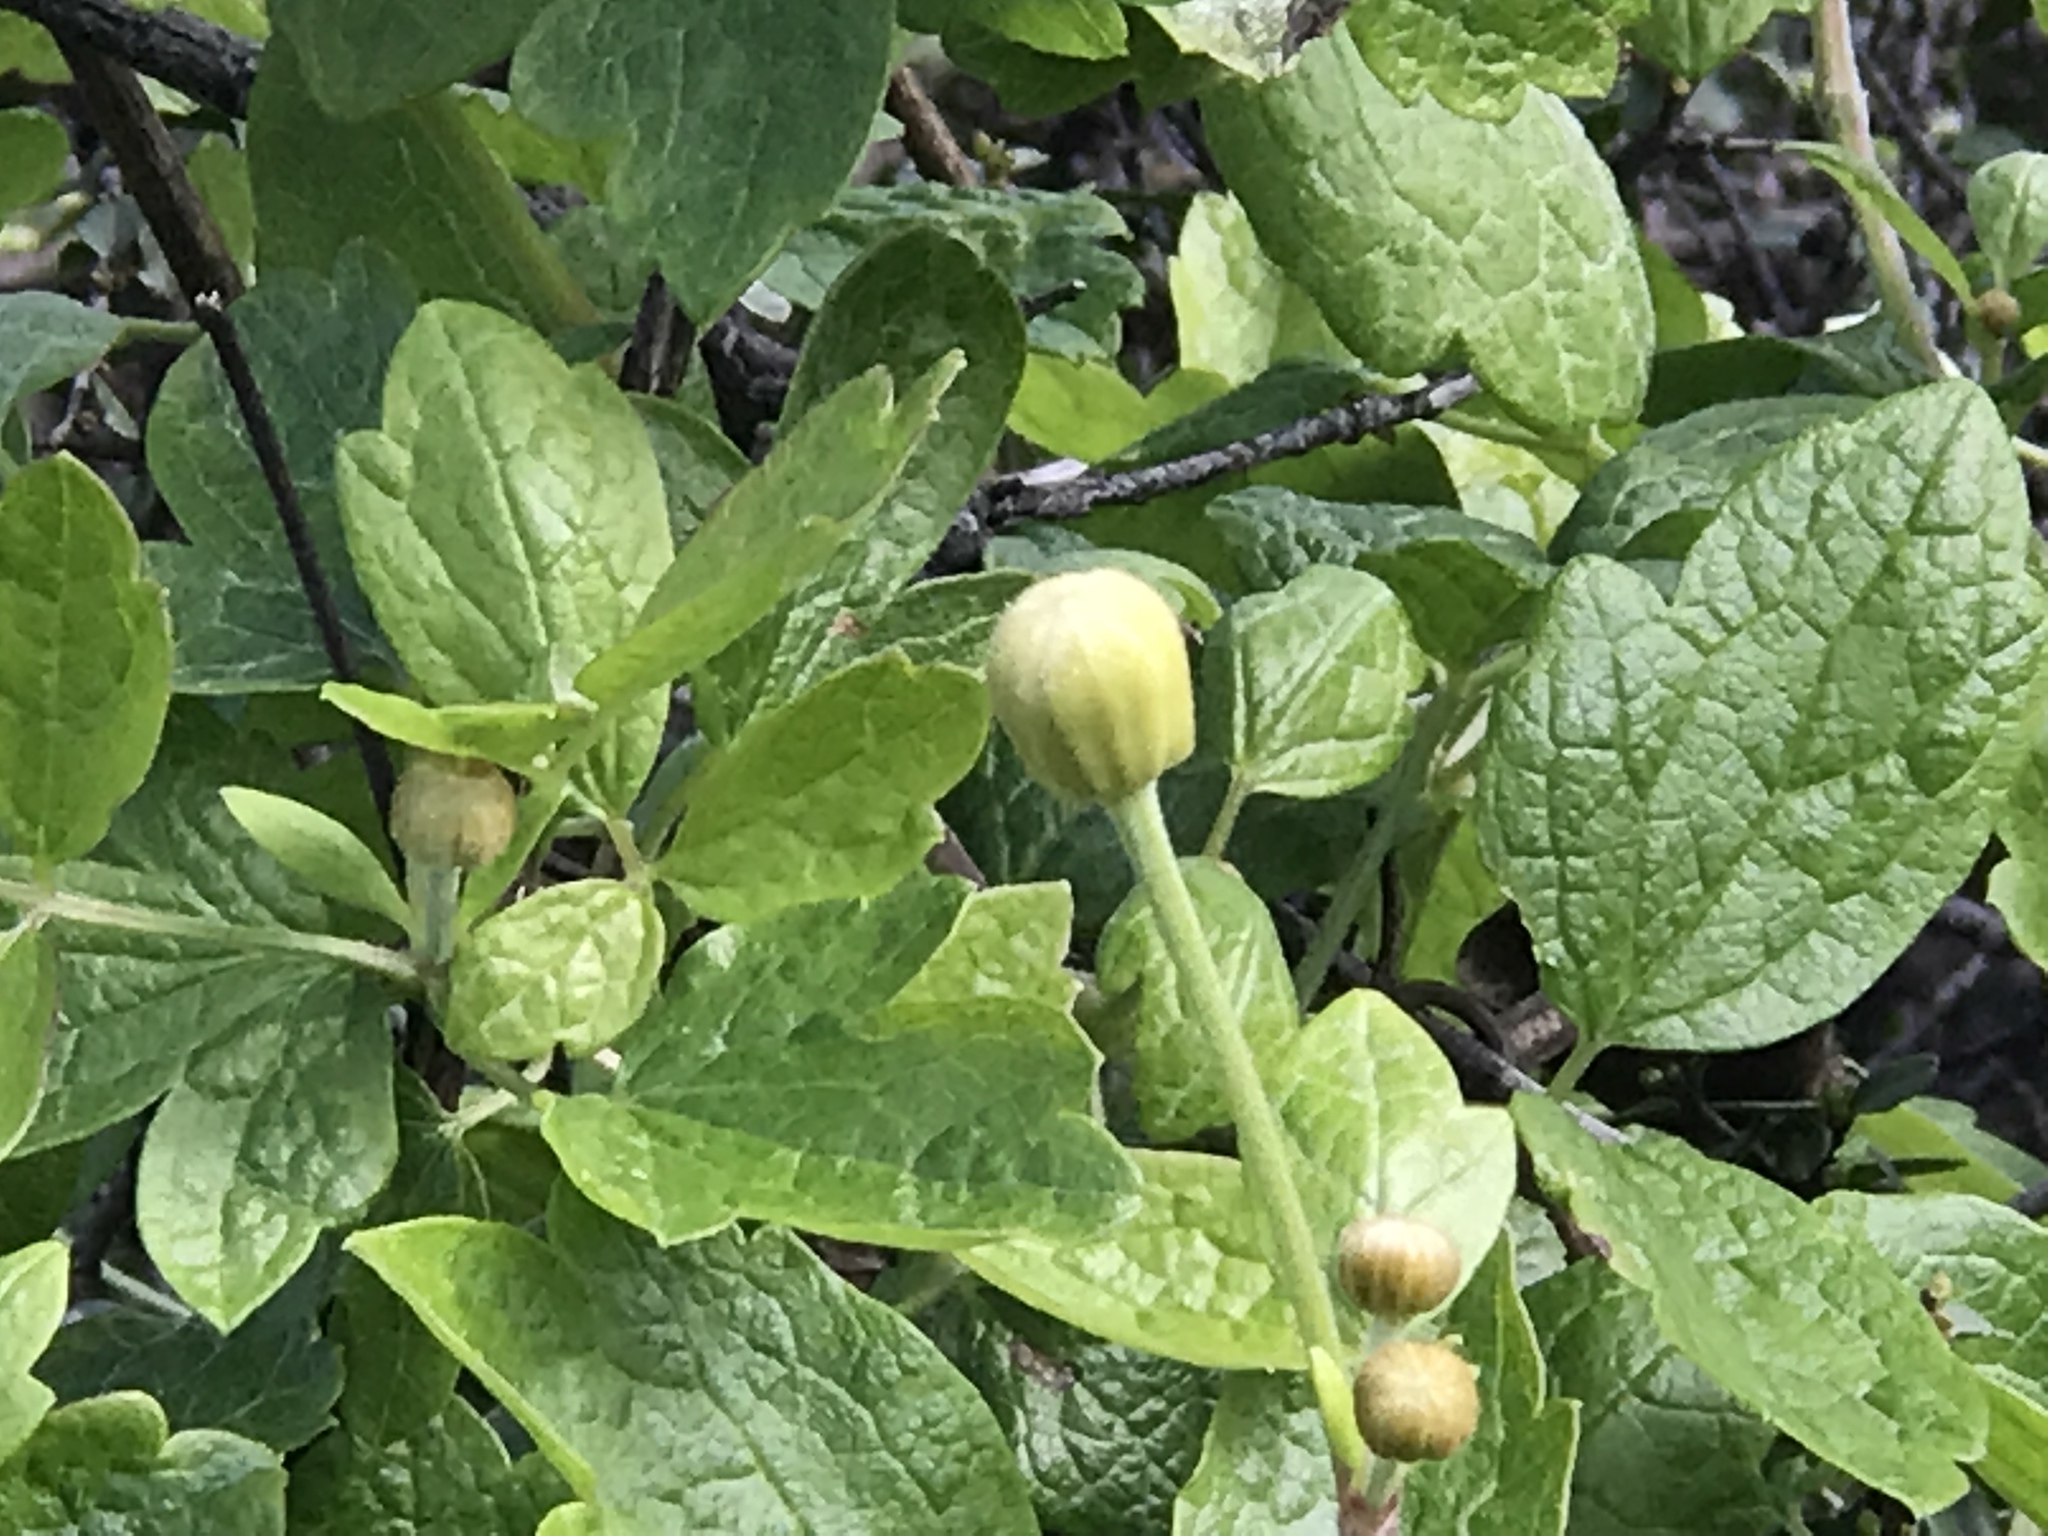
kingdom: Plantae
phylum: Tracheophyta
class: Magnoliopsida
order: Ranunculales
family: Ranunculaceae
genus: Clematis
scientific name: Clematis lasiantha
